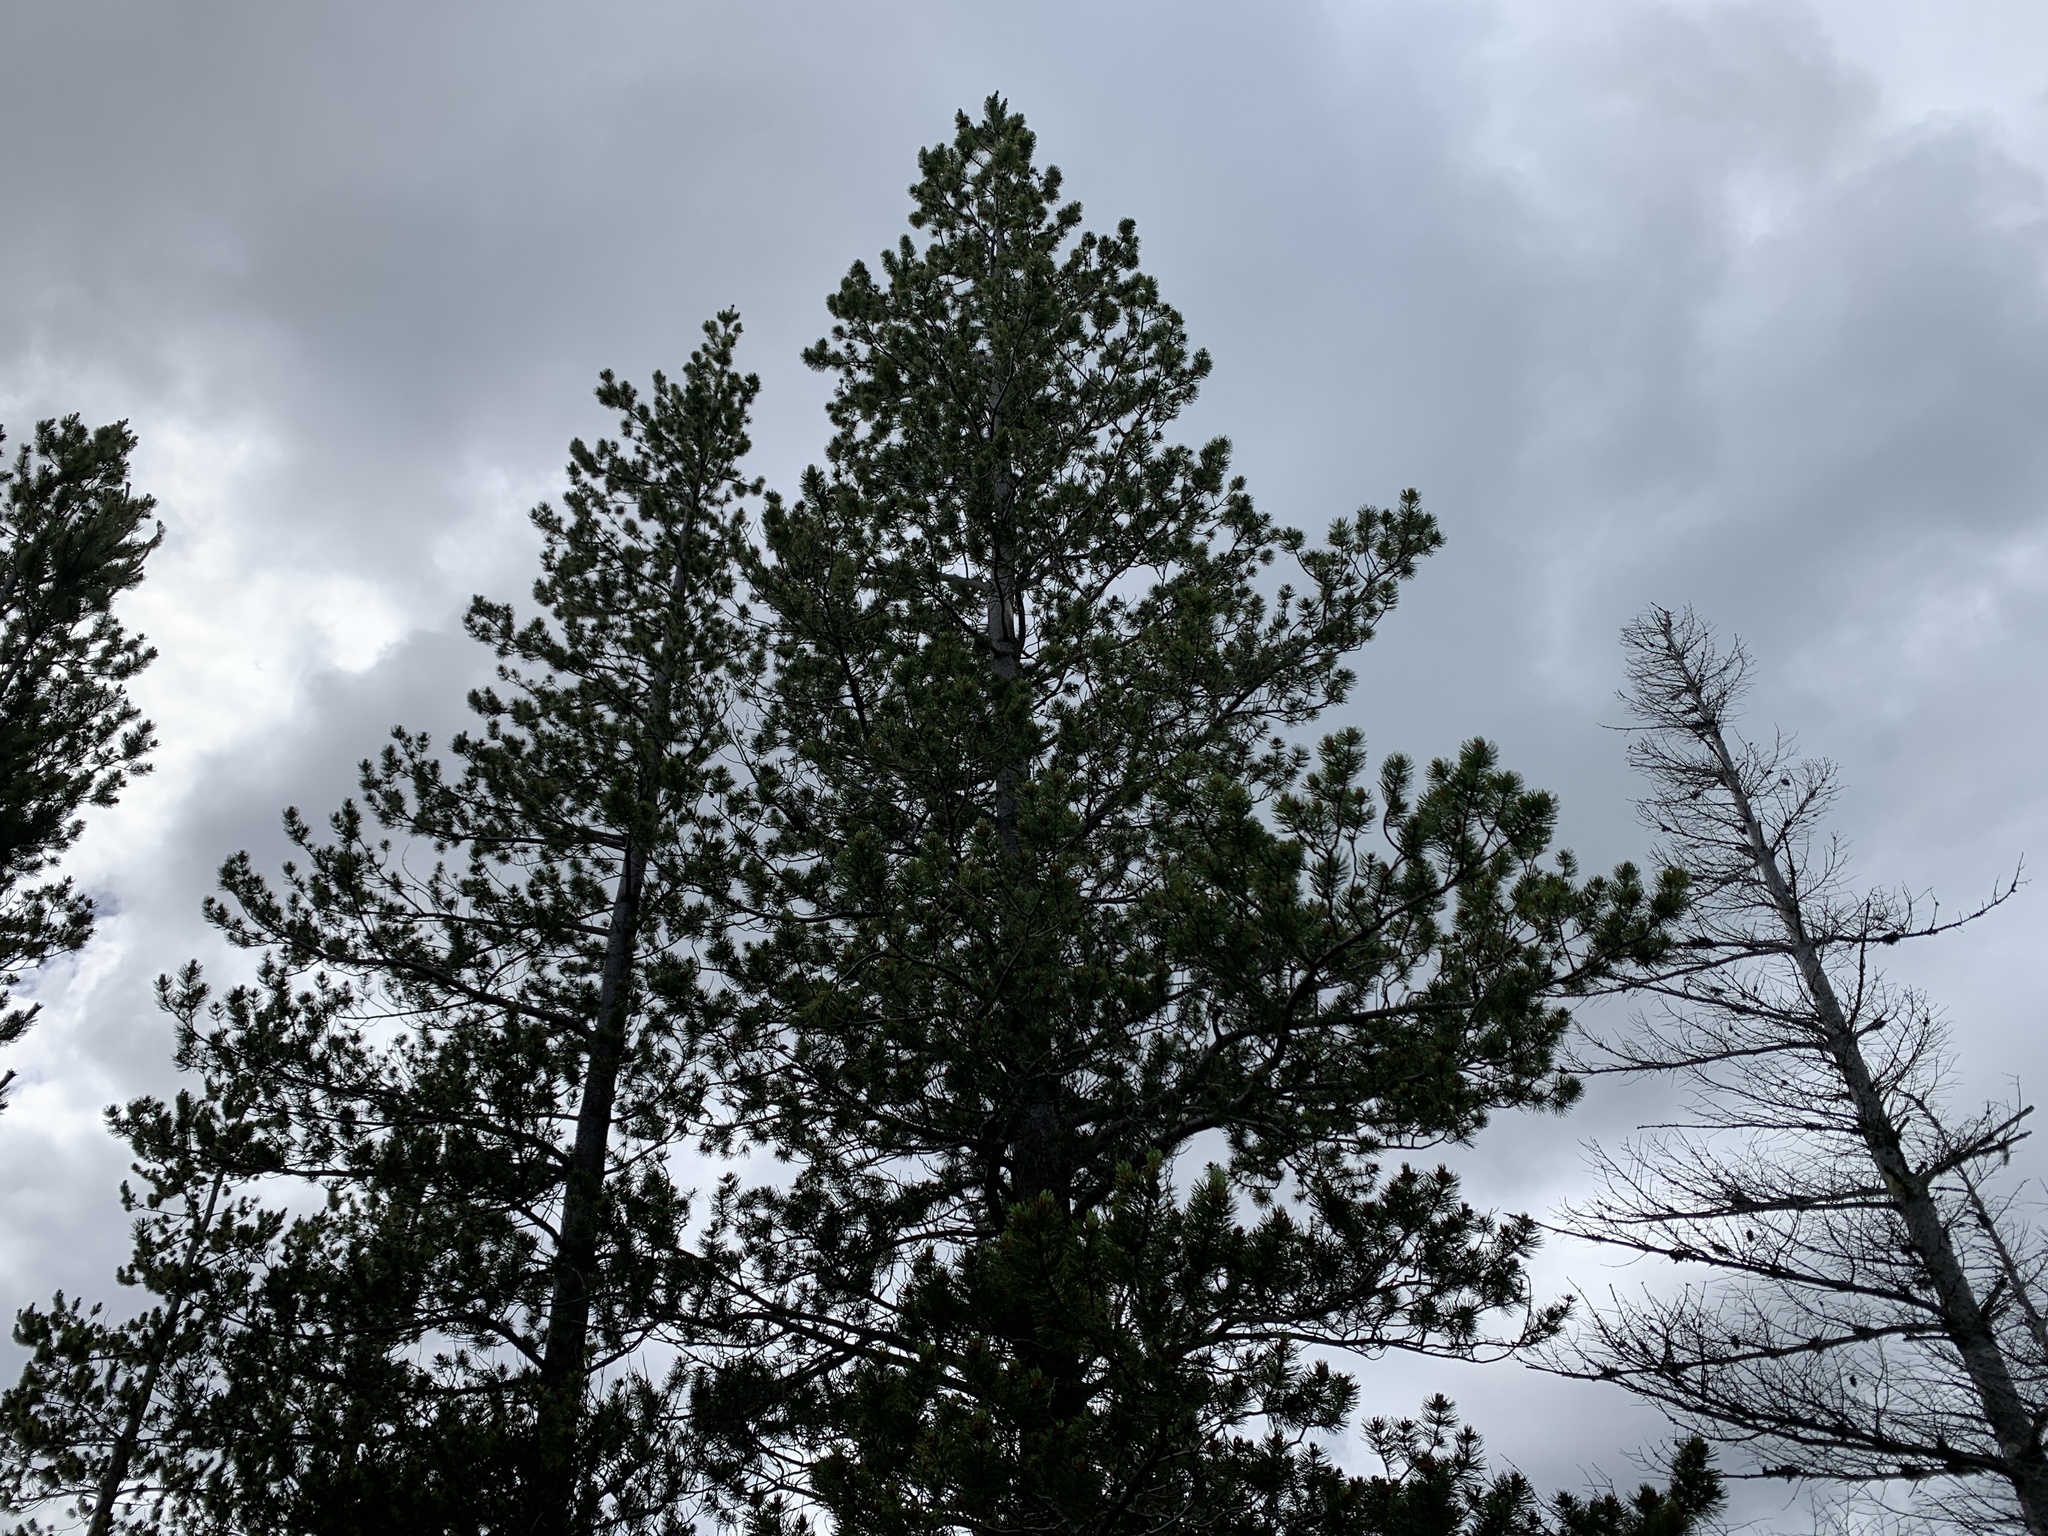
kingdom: Plantae
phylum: Tracheophyta
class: Pinopsida
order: Pinales
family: Pinaceae
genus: Pinus
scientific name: Pinus contorta
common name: Lodgepole pine
